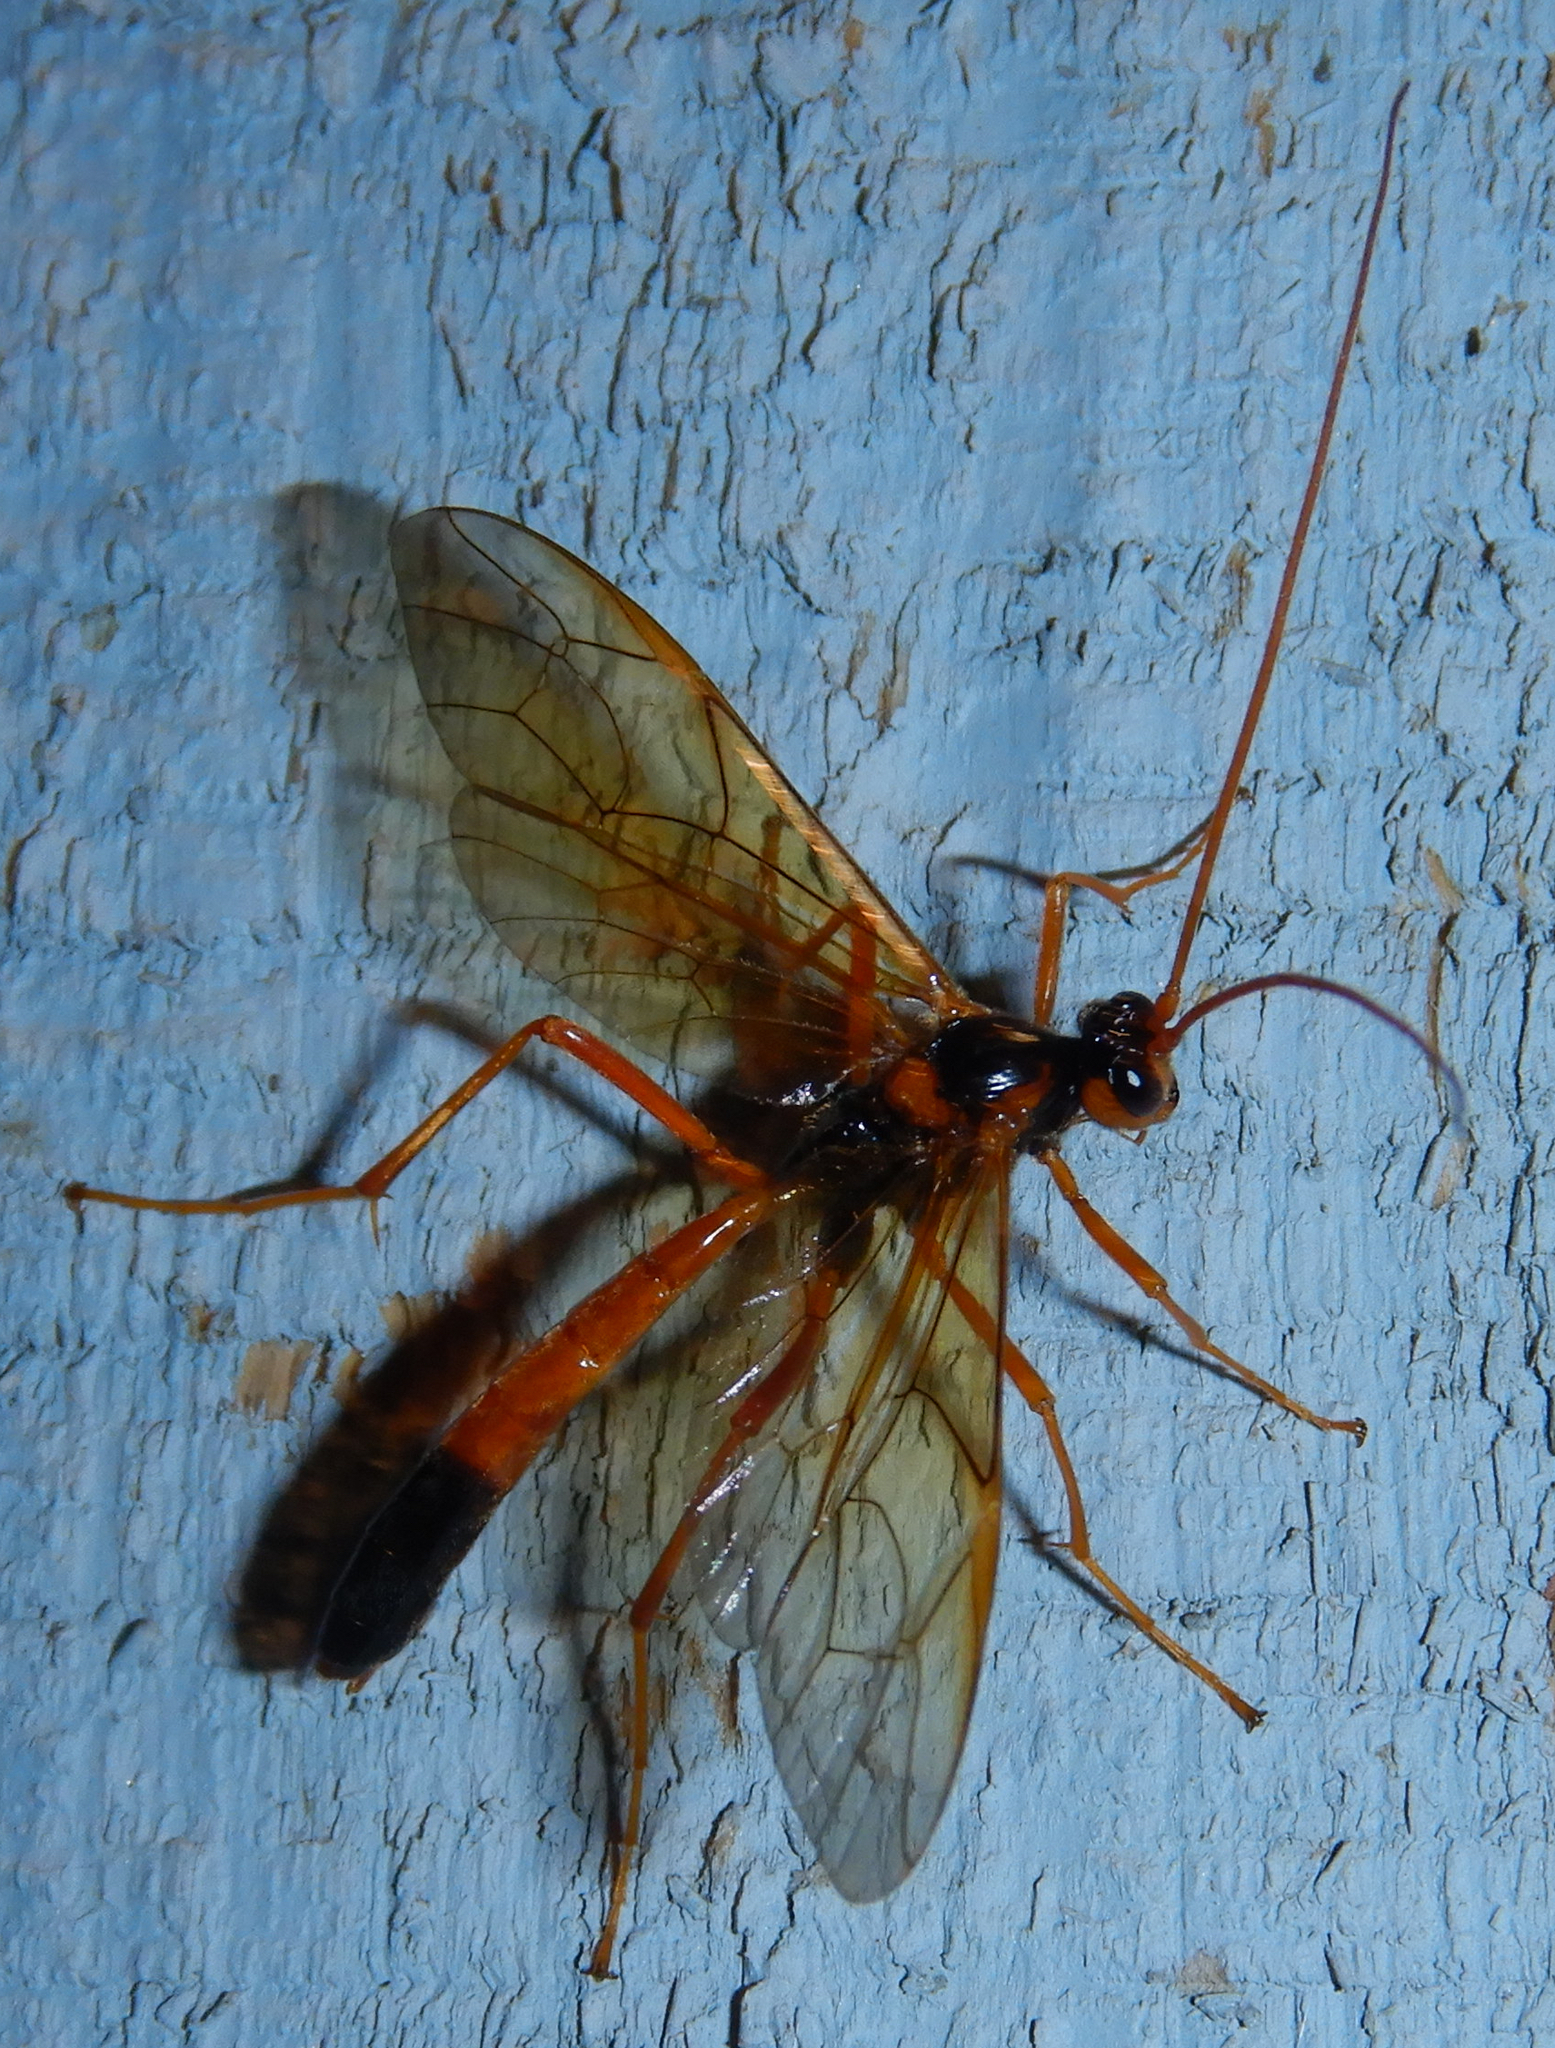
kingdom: Animalia
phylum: Arthropoda
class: Insecta
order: Hymenoptera
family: Ichneumonidae
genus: Opheltes
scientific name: Opheltes glaucopterus
